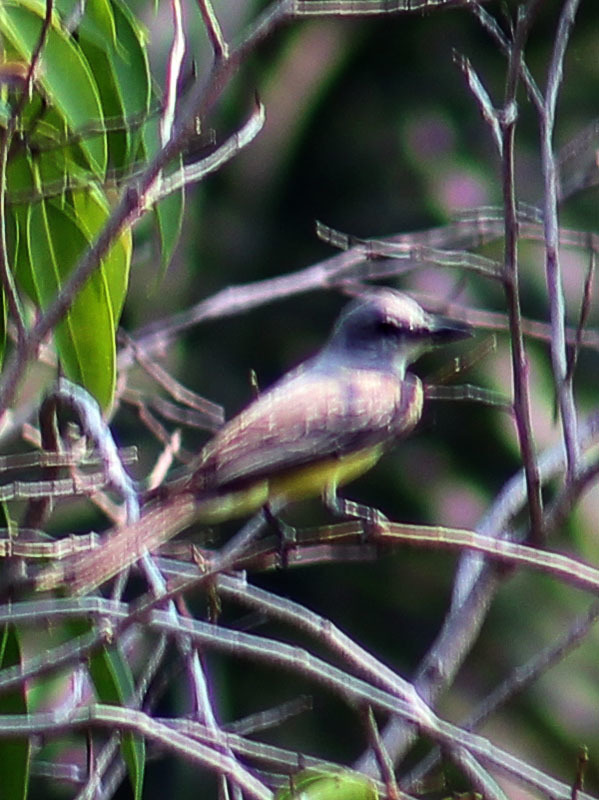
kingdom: Animalia
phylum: Chordata
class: Aves
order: Passeriformes
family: Tyrannidae
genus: Tyrannus
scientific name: Tyrannus melancholicus
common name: Tropical kingbird
